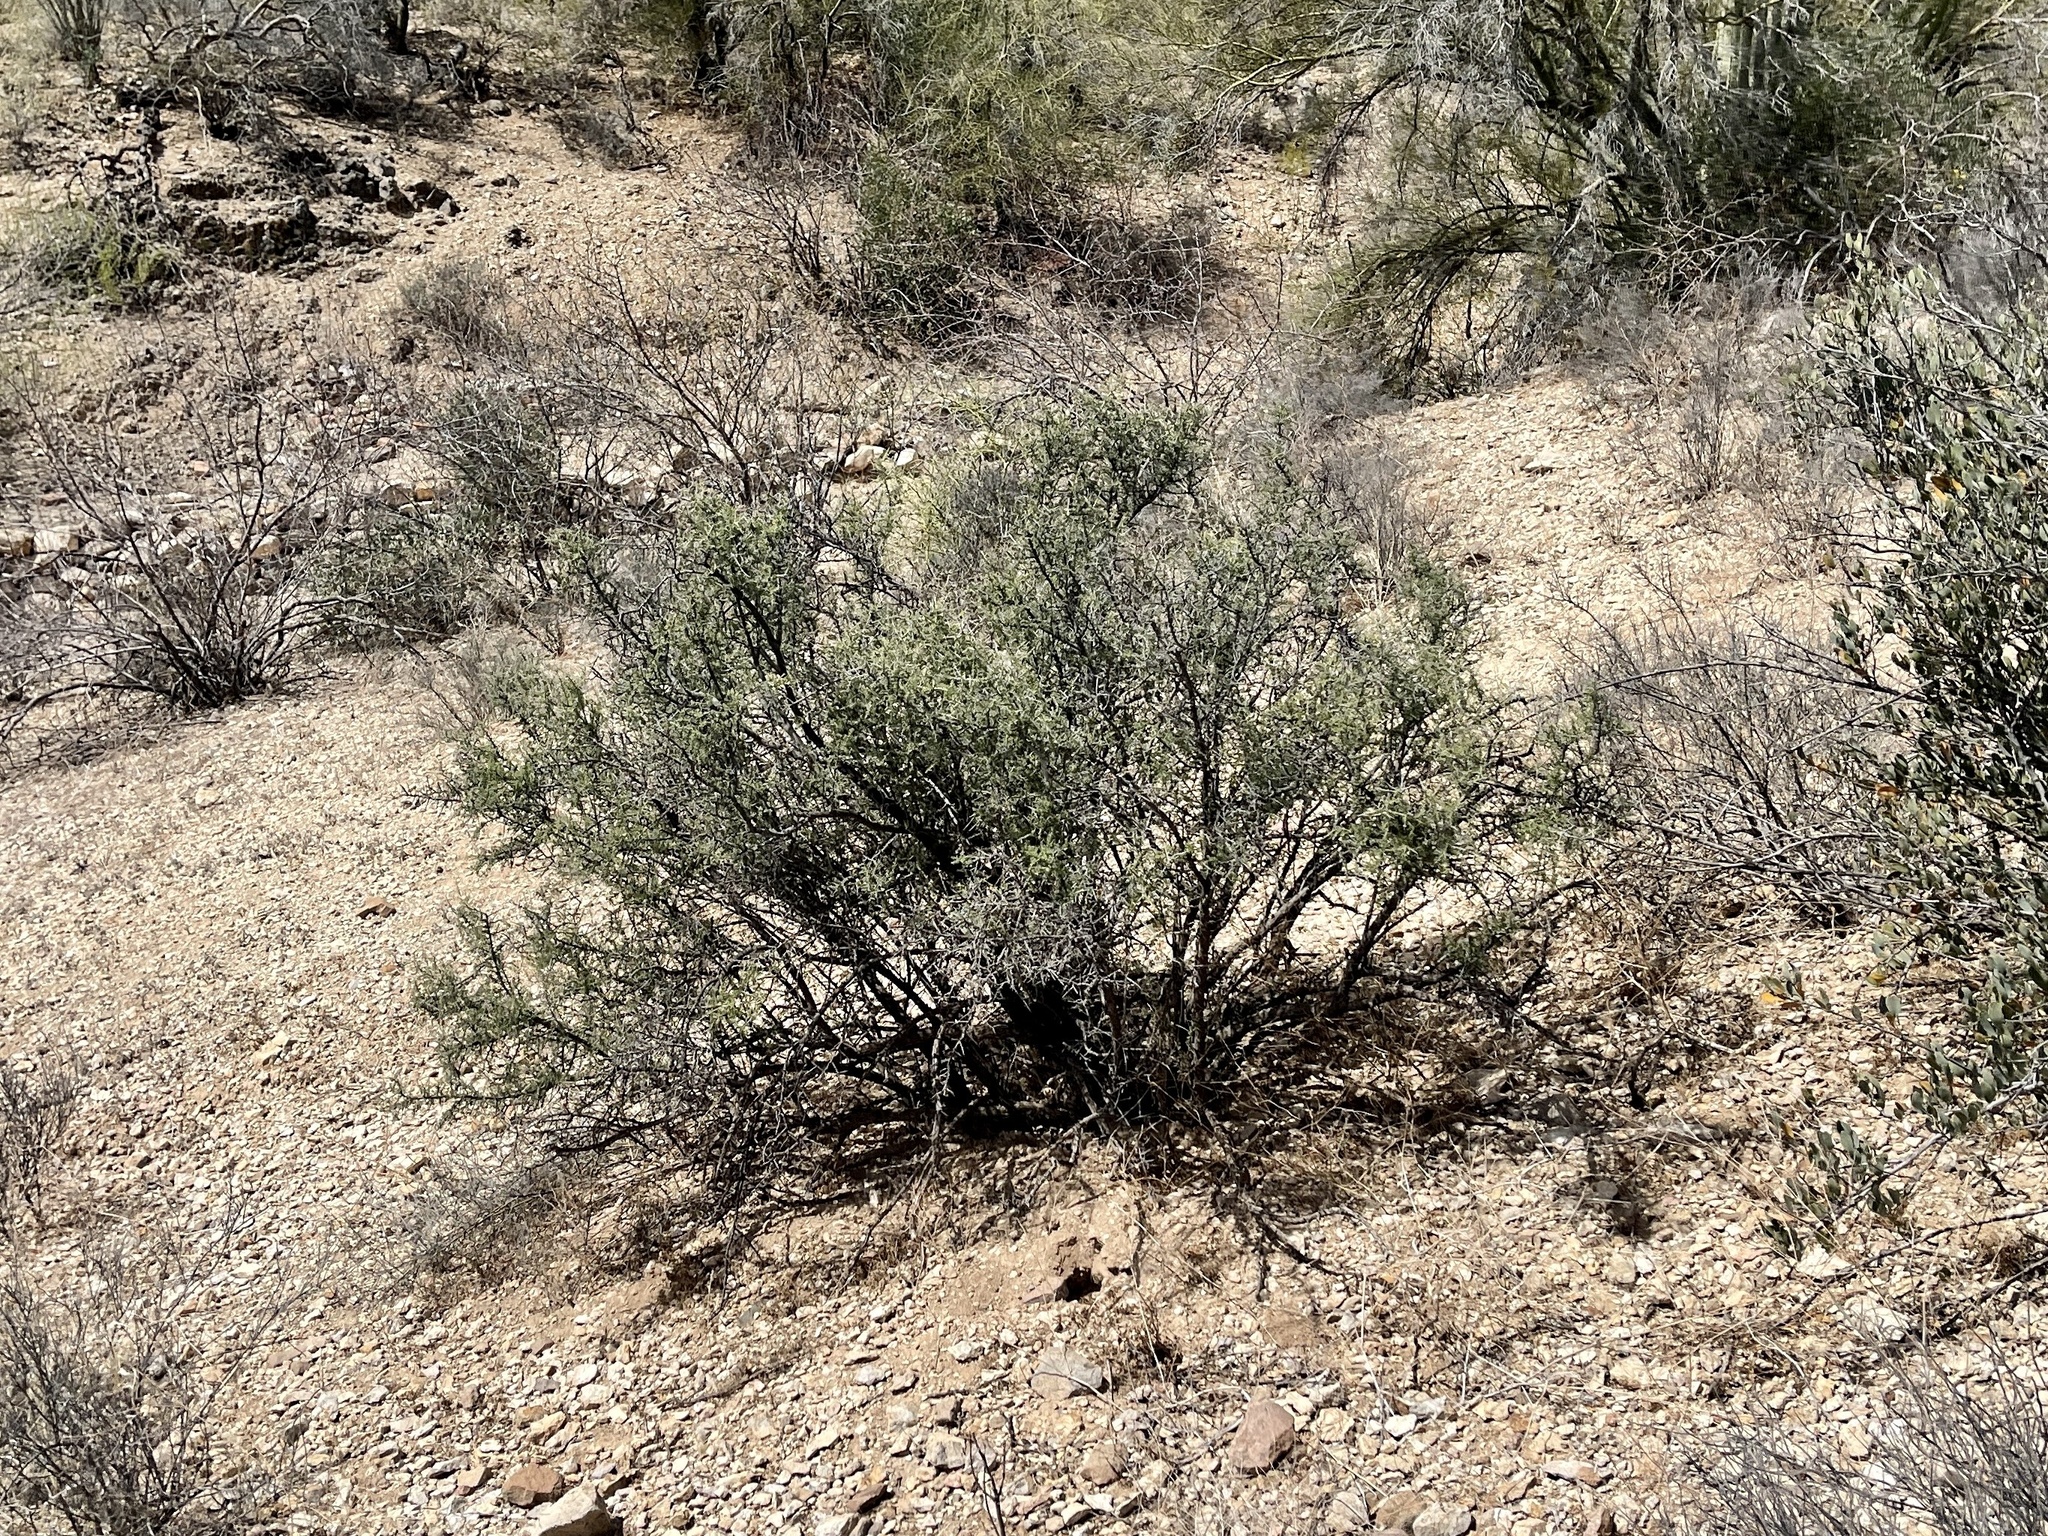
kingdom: Plantae
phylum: Tracheophyta
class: Magnoliopsida
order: Rosales
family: Rhamnaceae
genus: Condalia
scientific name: Condalia warnockii
